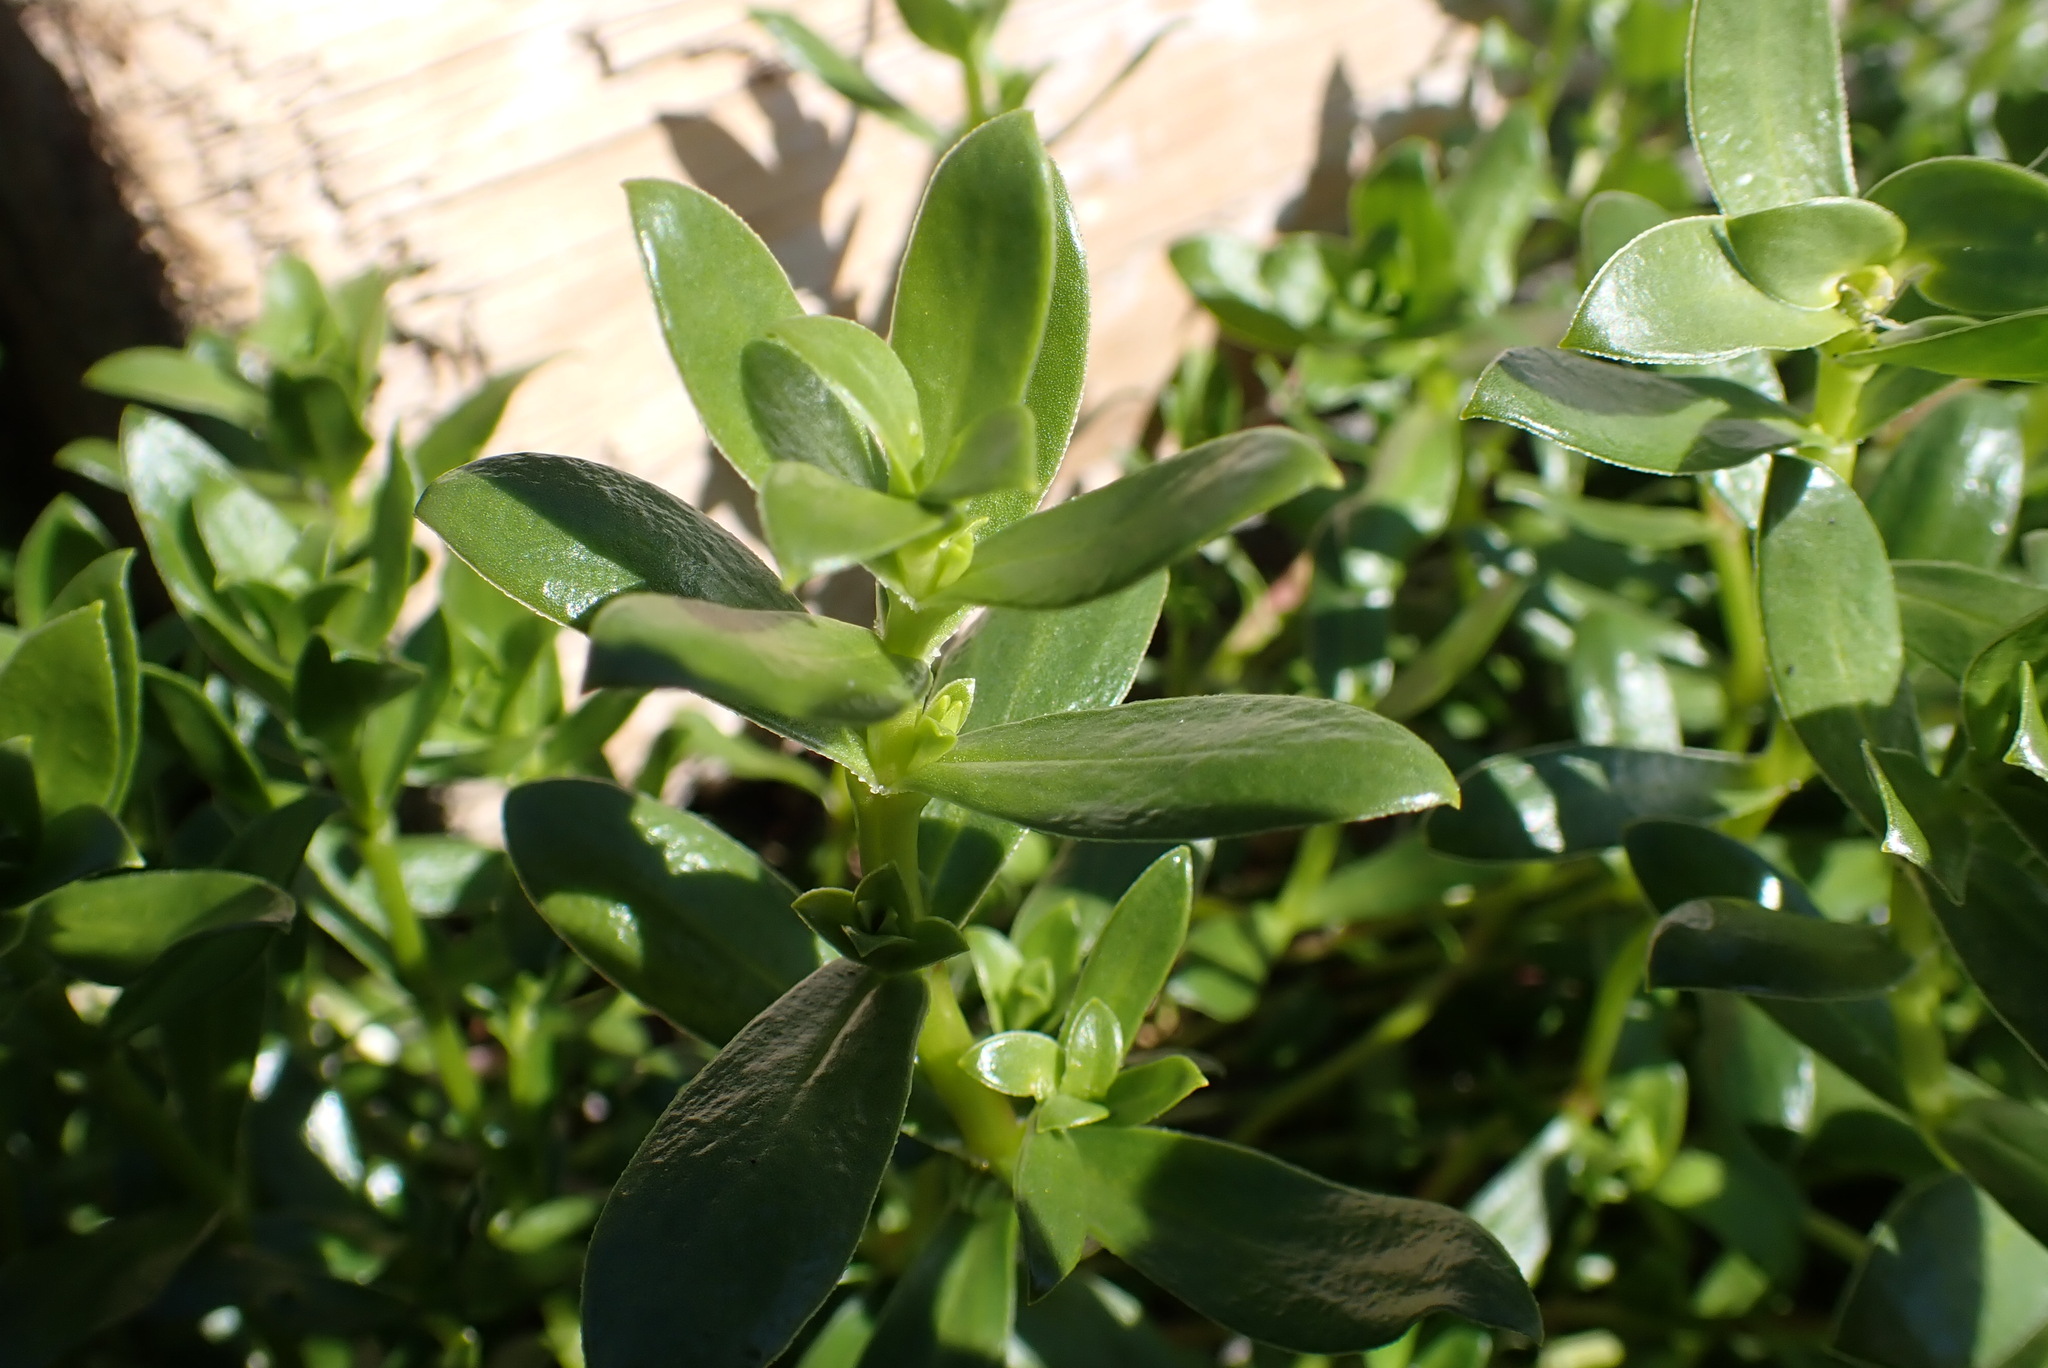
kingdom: Plantae
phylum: Tracheophyta
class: Magnoliopsida
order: Caryophyllales
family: Caryophyllaceae
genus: Honckenya
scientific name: Honckenya peploides
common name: Sea sandwort
